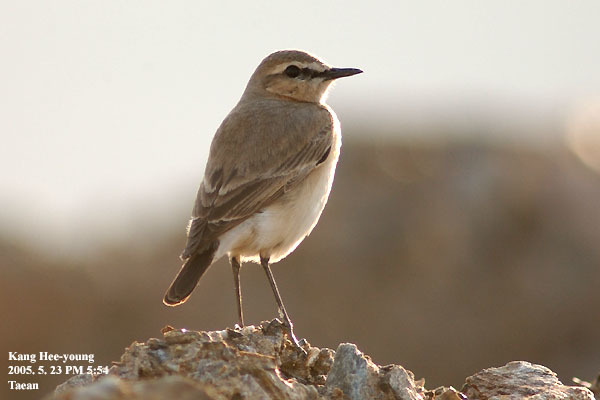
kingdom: Animalia
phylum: Chordata
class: Aves
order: Passeriformes
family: Muscicapidae
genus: Oenanthe
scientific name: Oenanthe isabellina
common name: Isabelline wheatear
